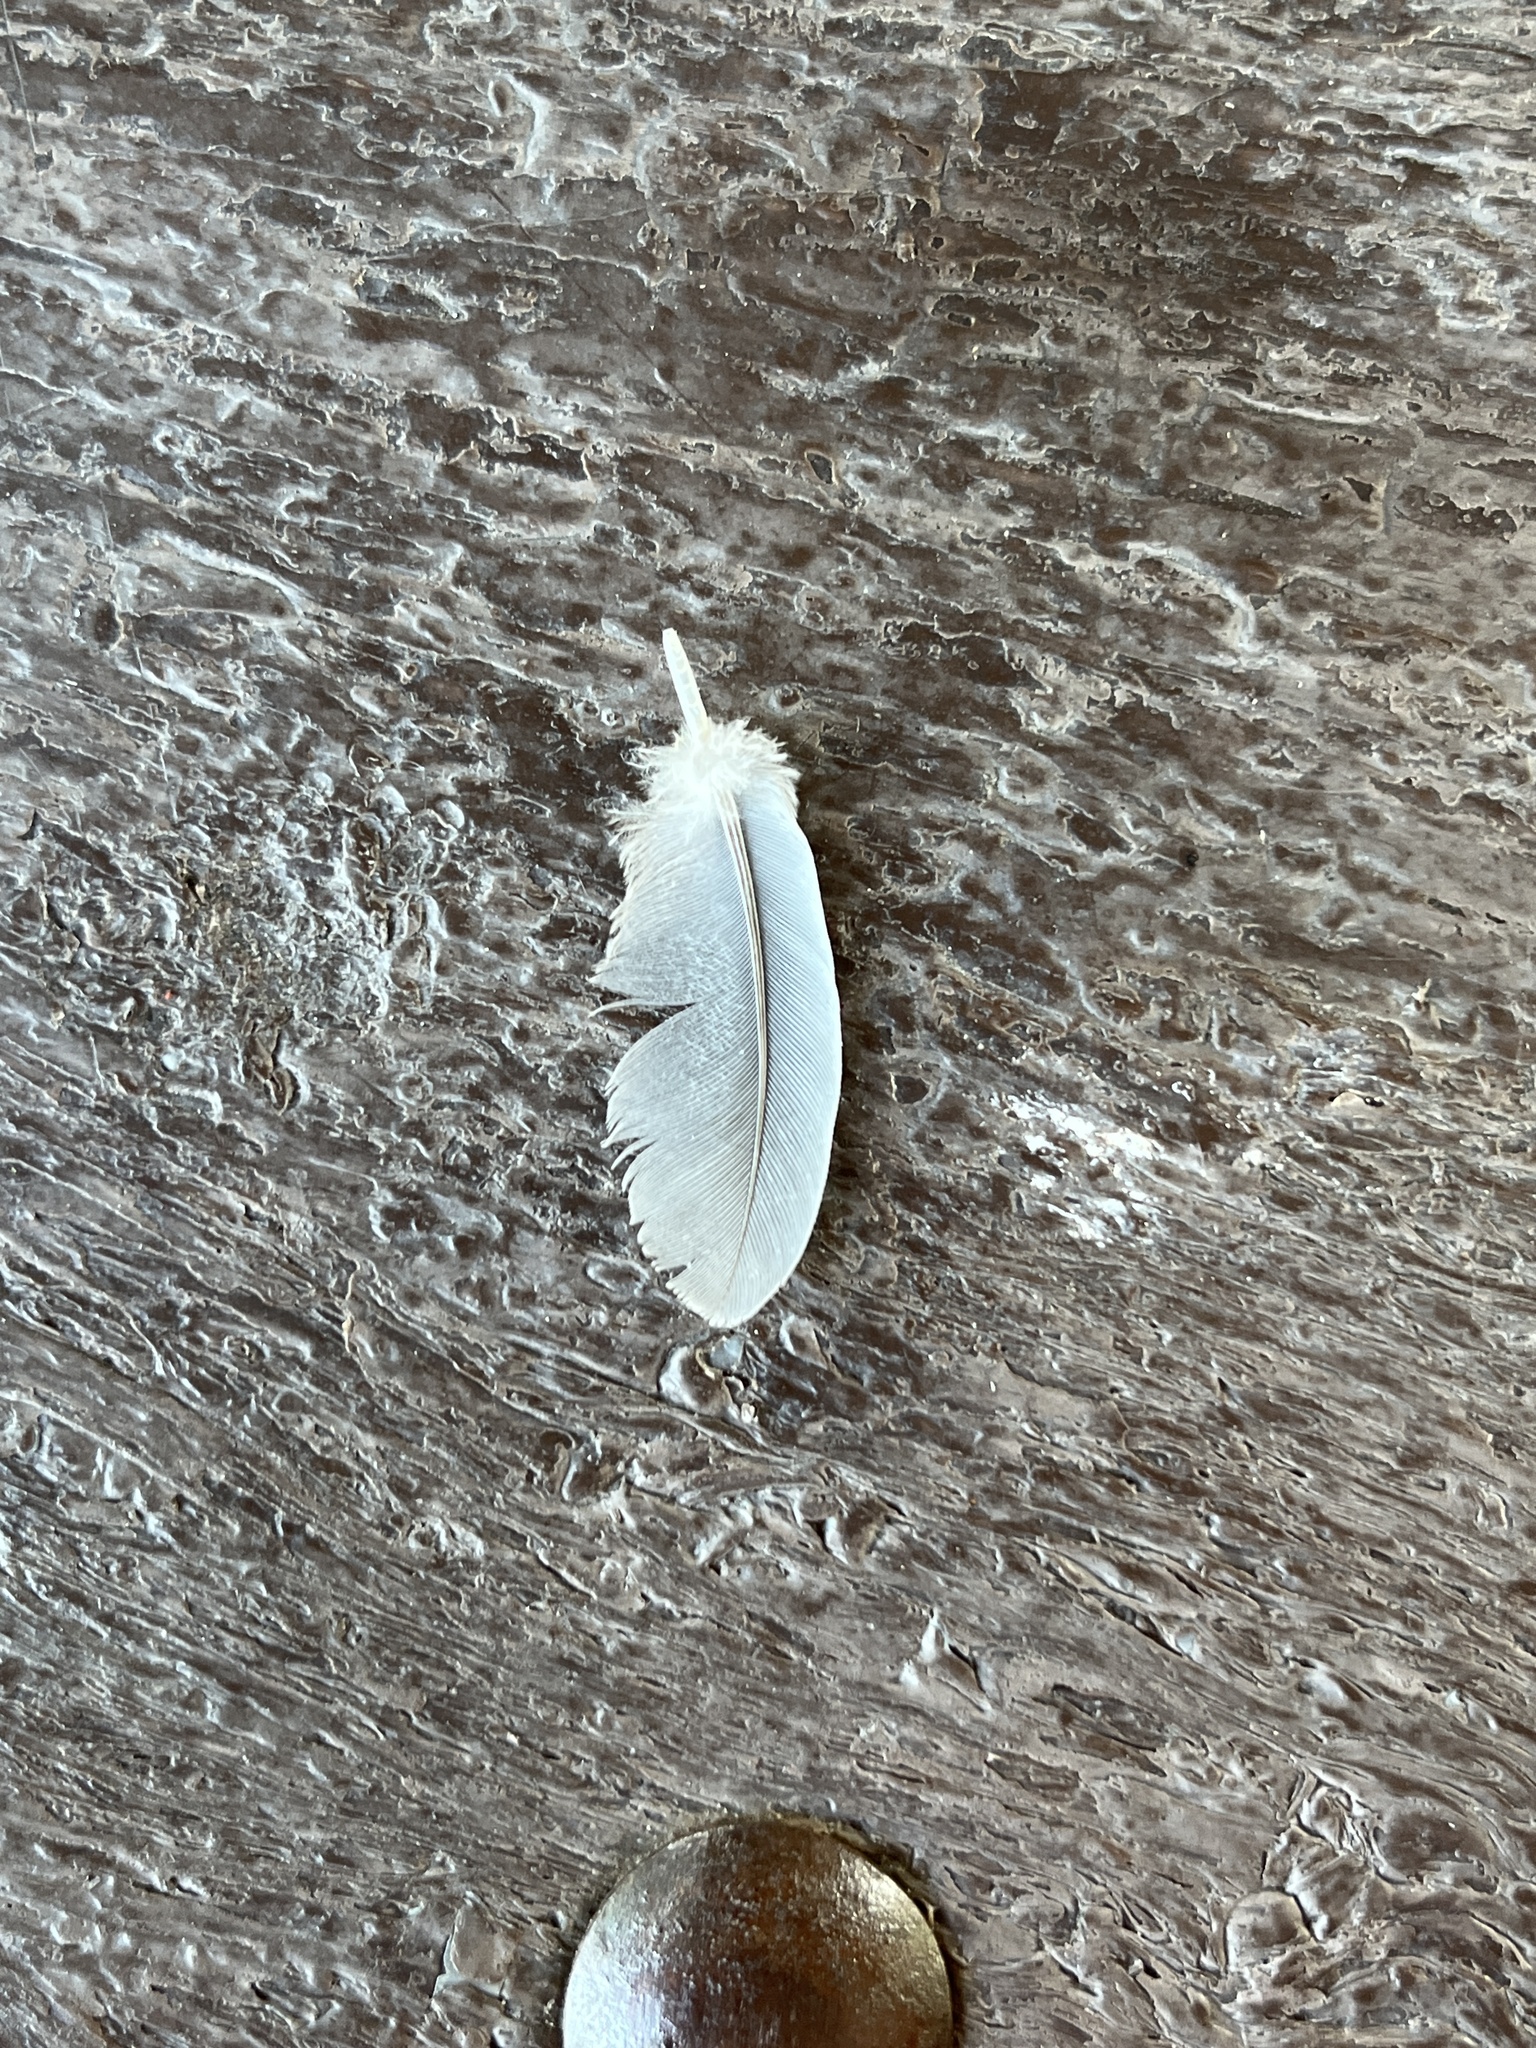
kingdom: Animalia
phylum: Chordata
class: Aves
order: Columbiformes
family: Columbidae
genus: Zenaida
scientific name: Zenaida macroura
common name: Mourning dove
